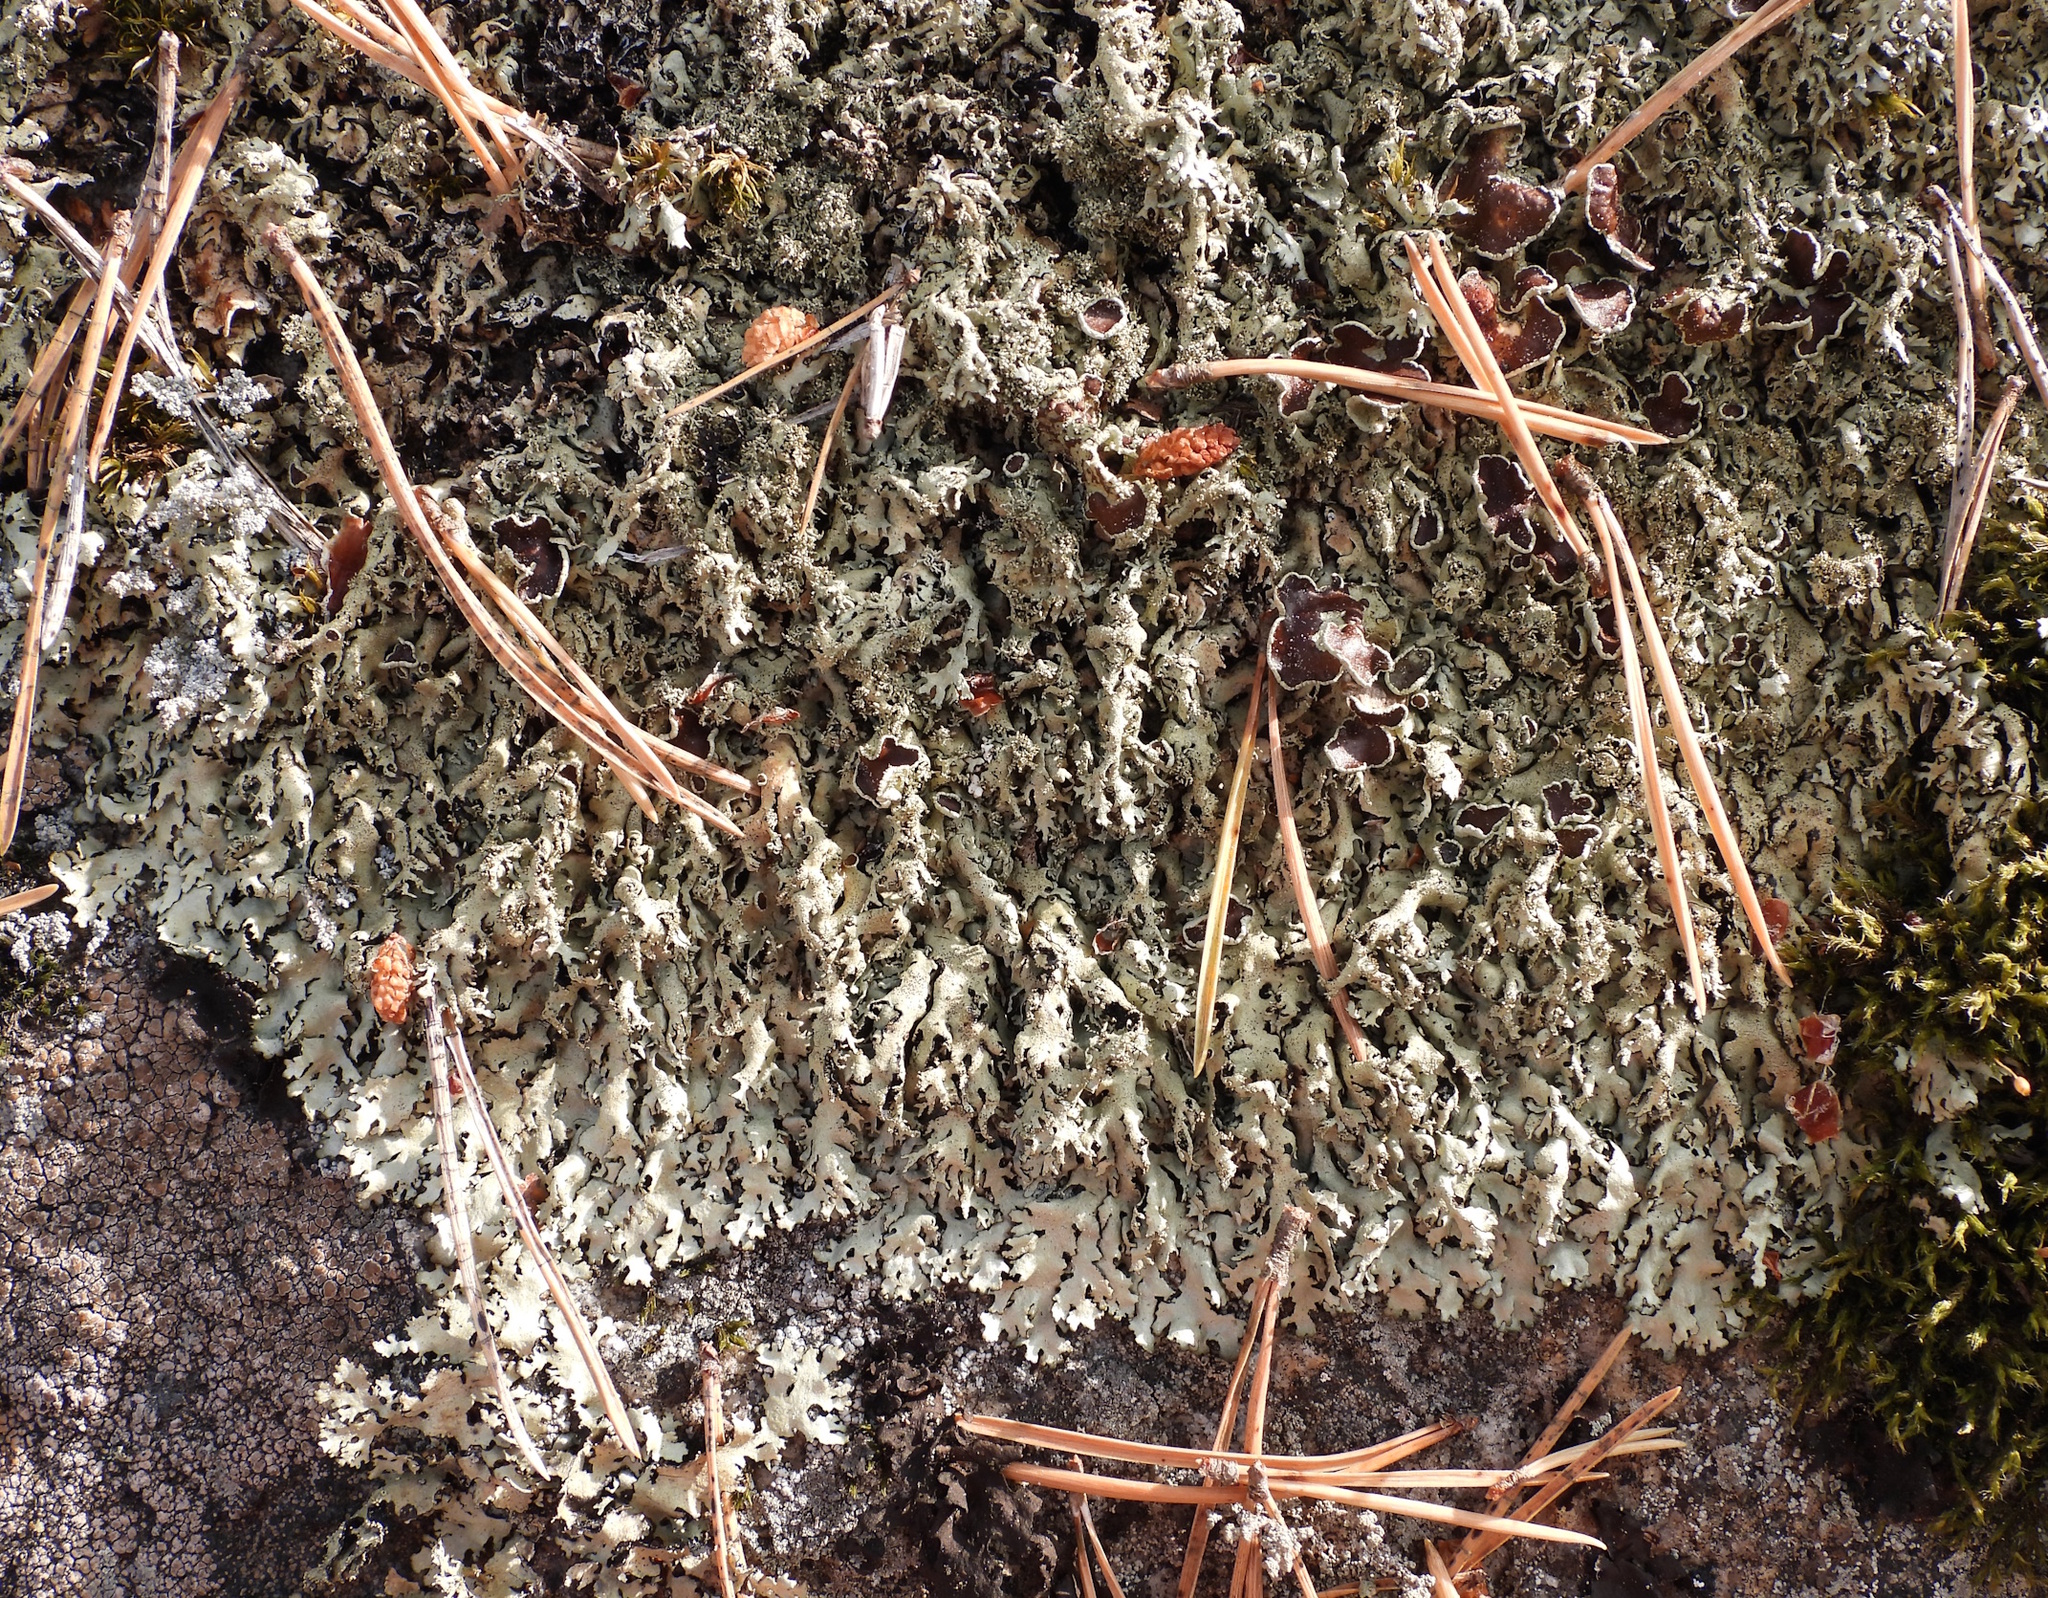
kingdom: Fungi
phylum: Ascomycota
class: Lecanoromycetes
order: Lecanorales
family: Parmeliaceae
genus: Xanthoparmelia
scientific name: Xanthoparmelia conspersa
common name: Peppered rock shield
